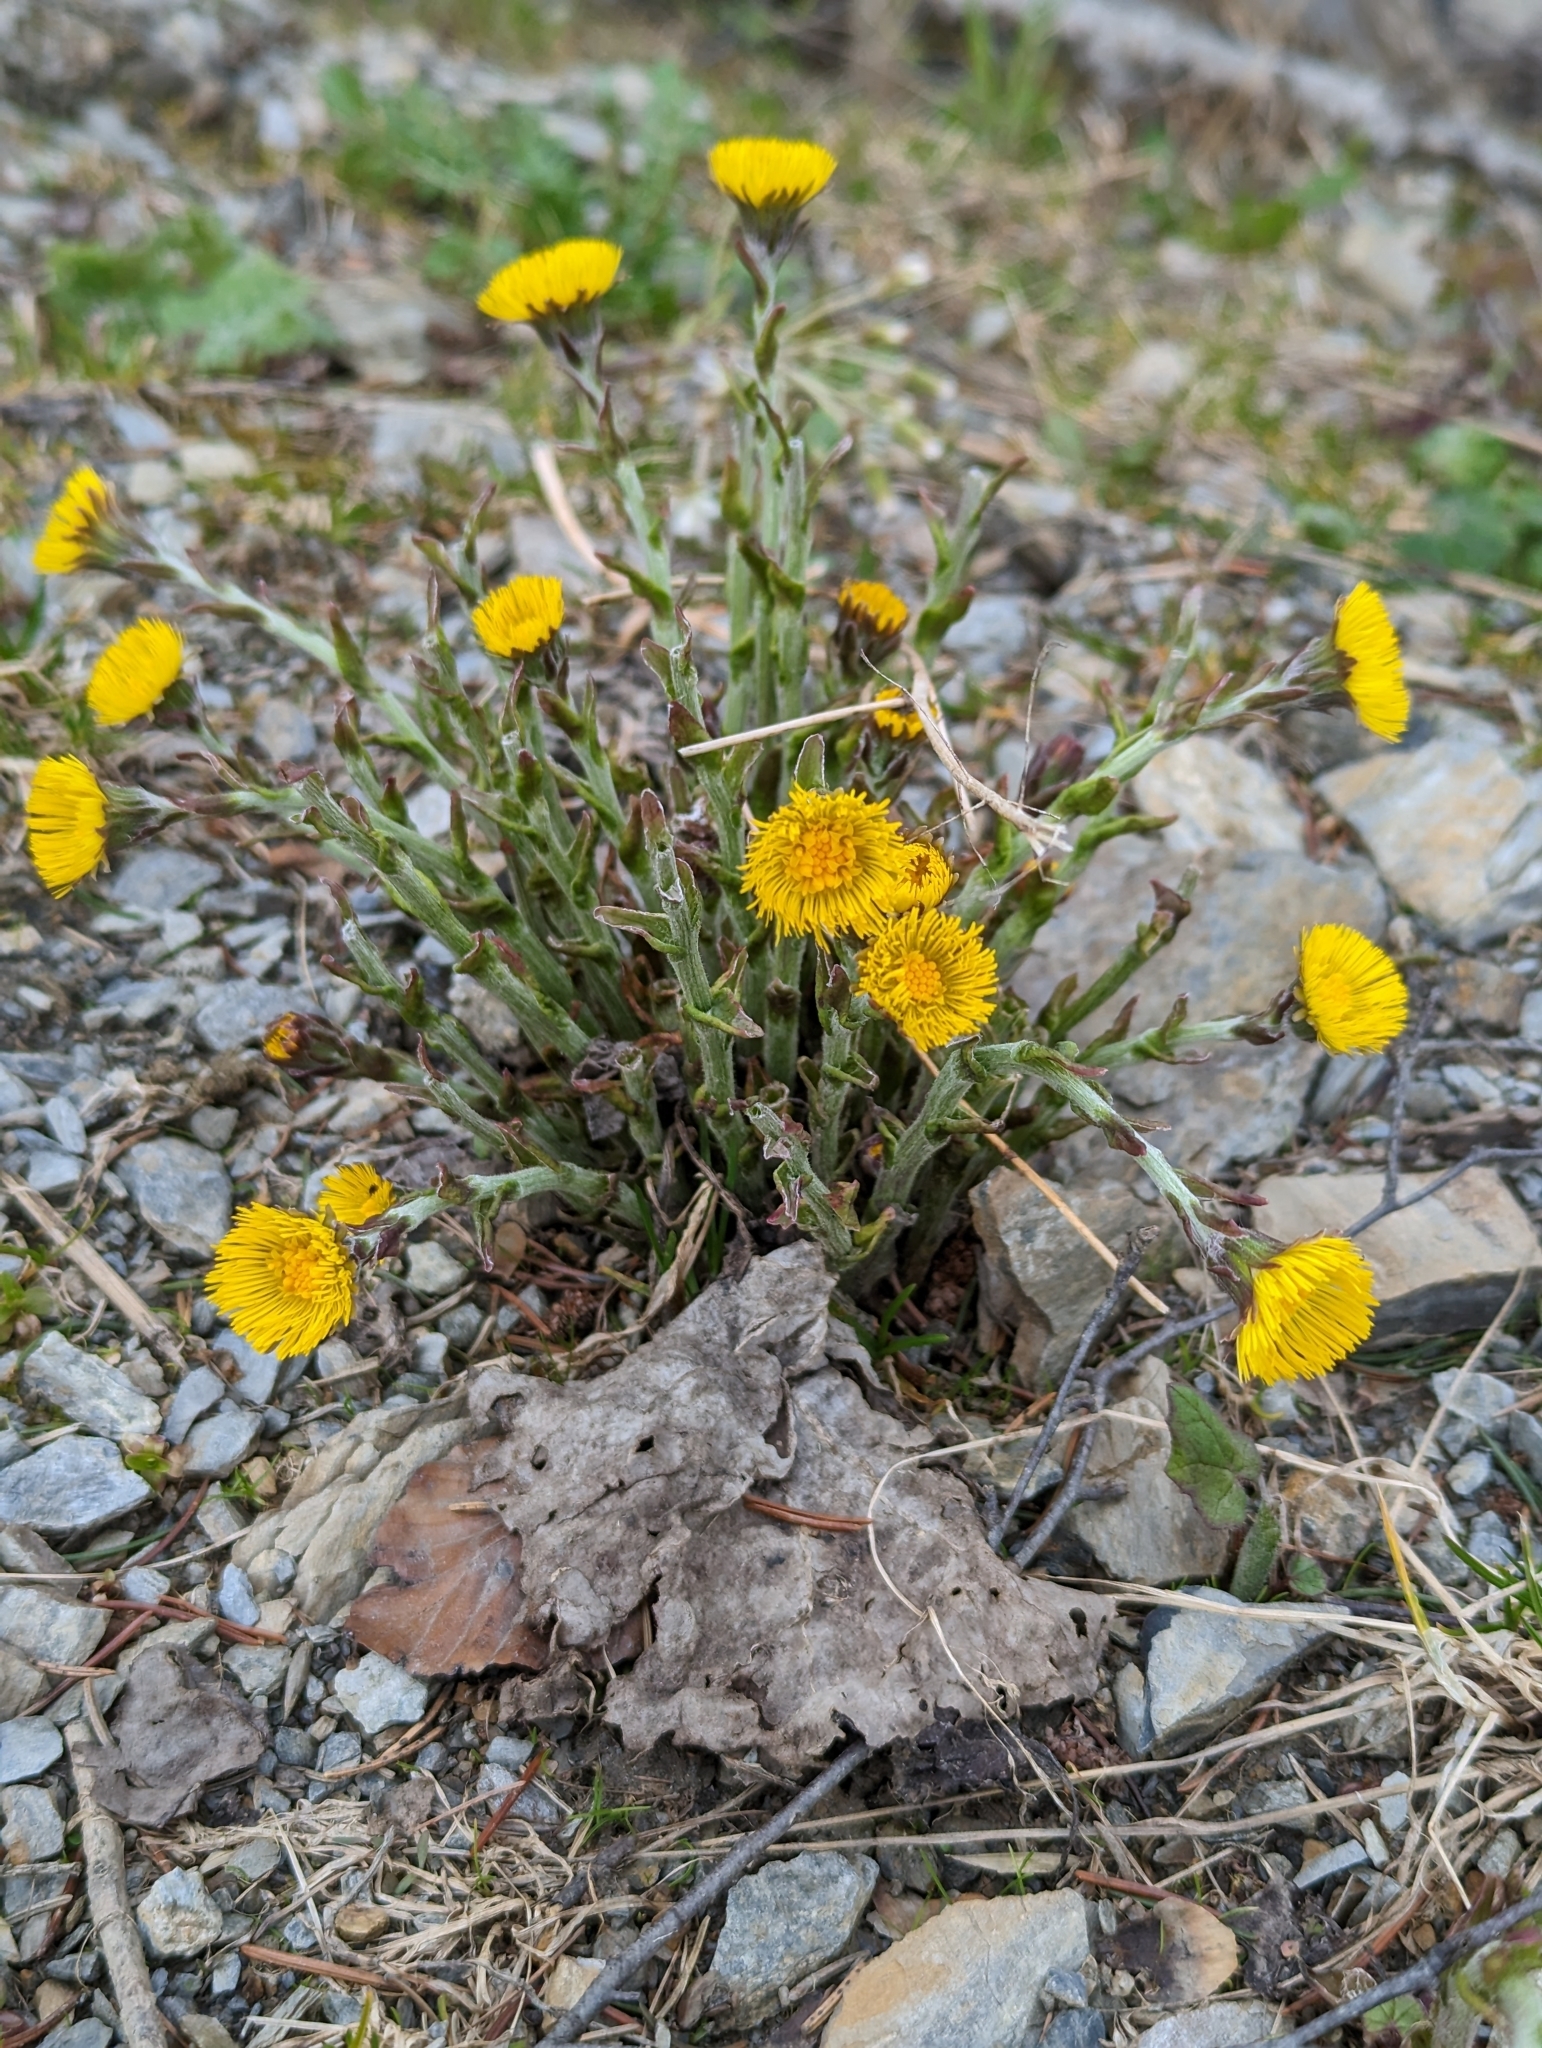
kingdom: Plantae
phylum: Tracheophyta
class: Magnoliopsida
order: Asterales
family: Asteraceae
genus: Tussilago
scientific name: Tussilago farfara
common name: Coltsfoot
